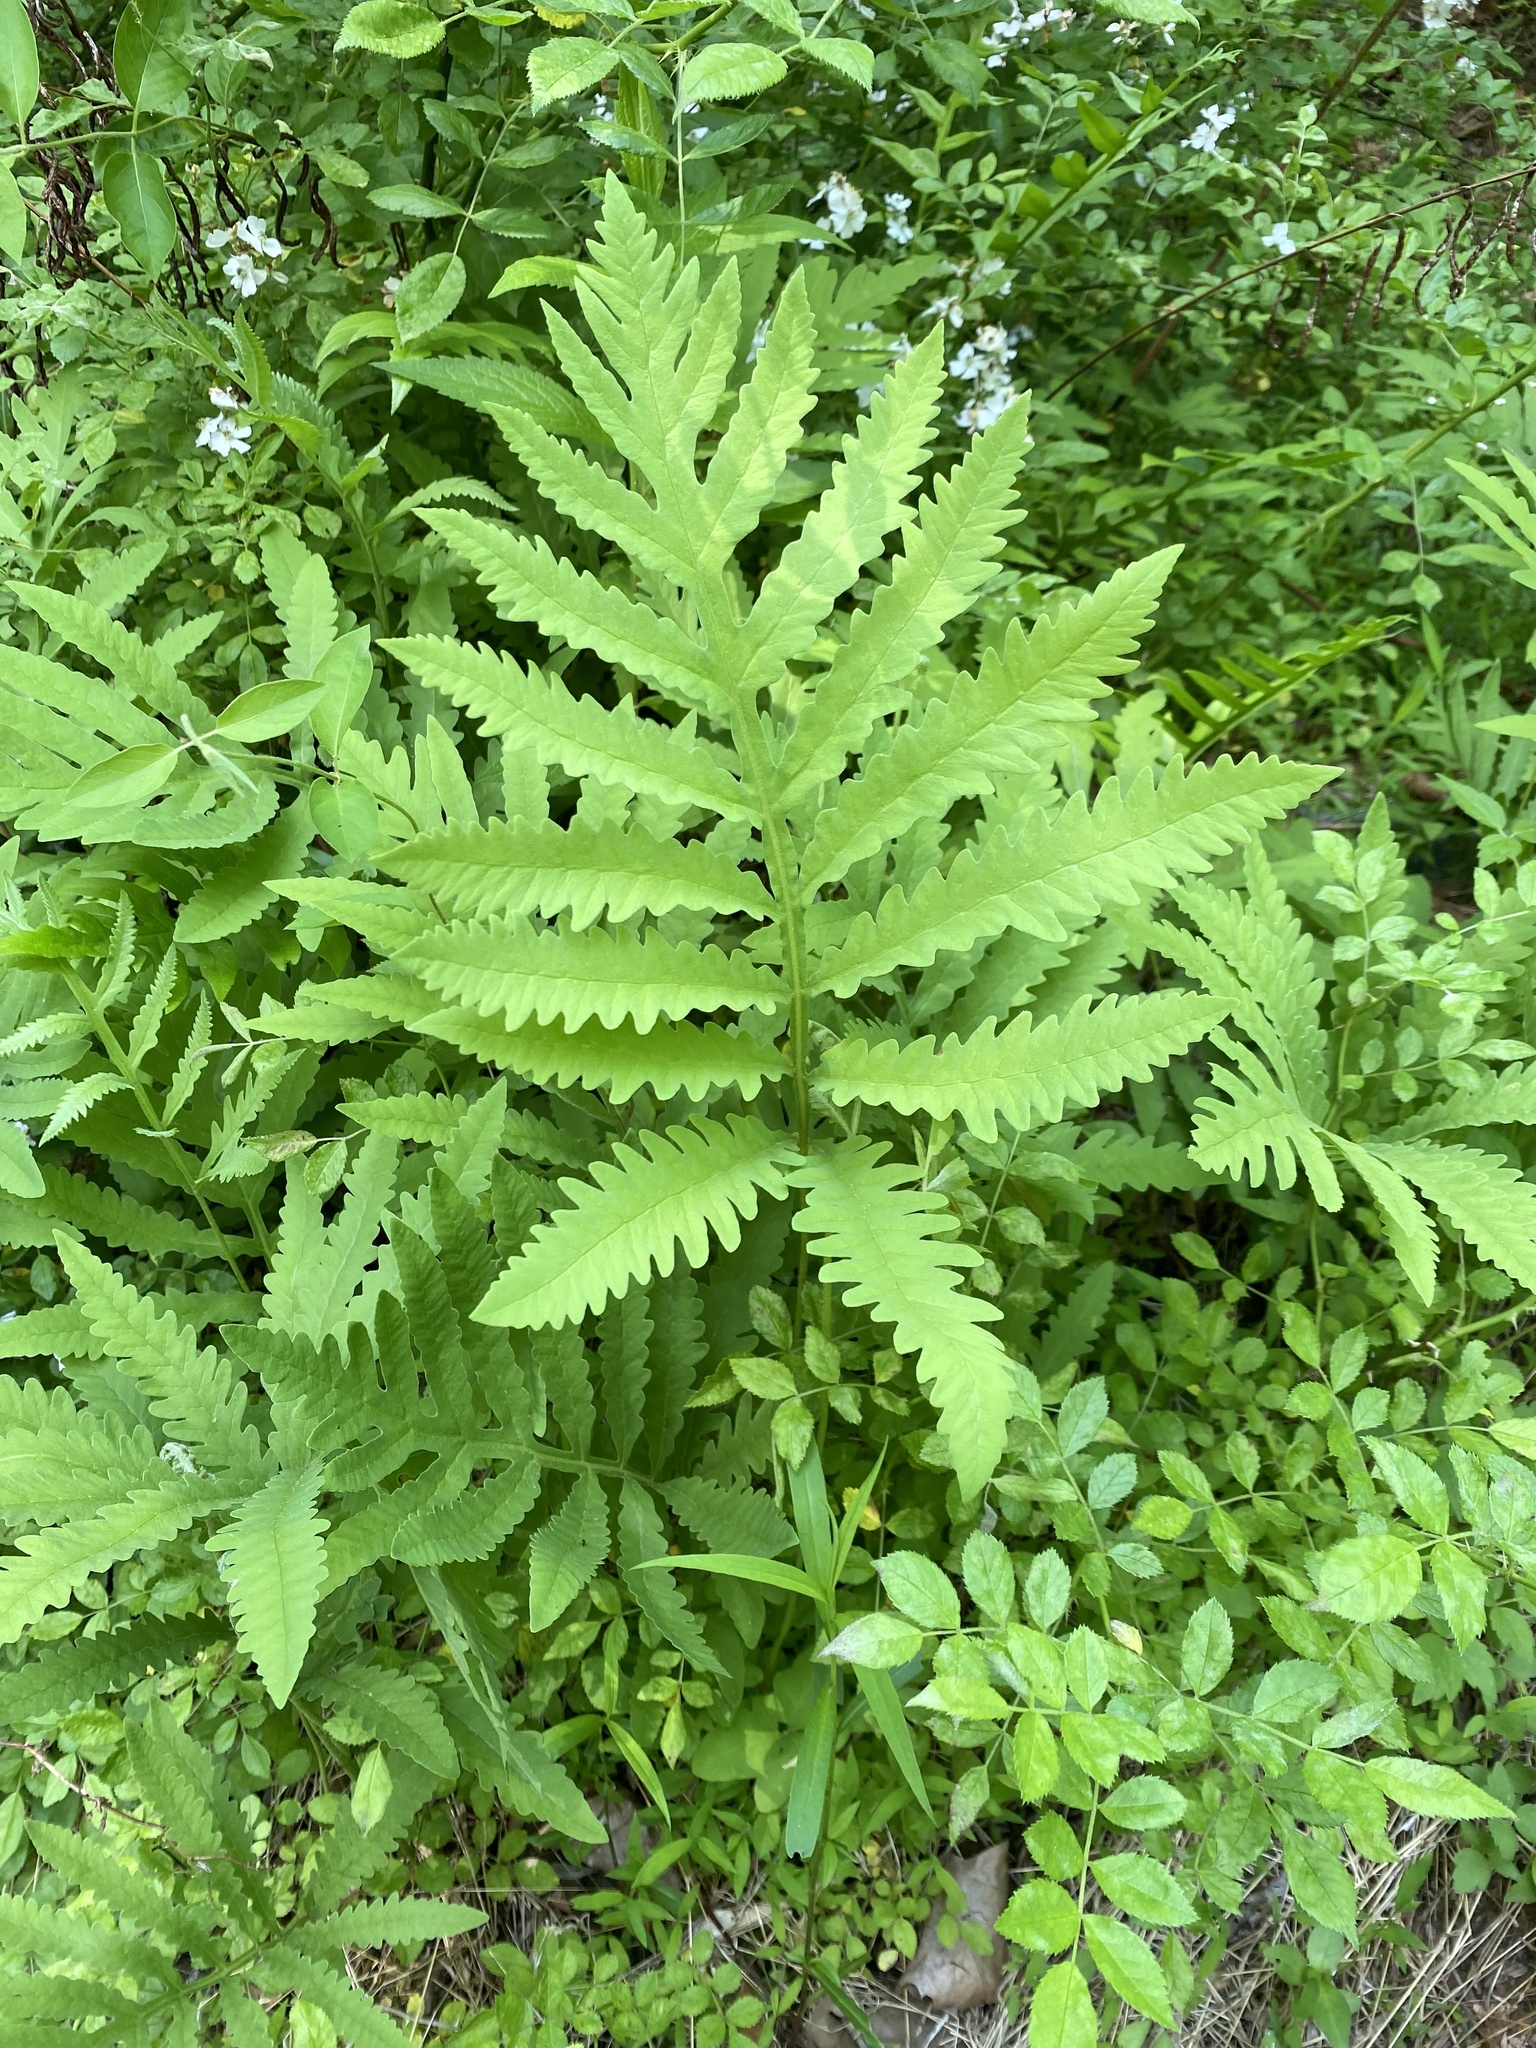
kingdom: Plantae
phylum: Tracheophyta
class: Polypodiopsida
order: Polypodiales
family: Onocleaceae
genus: Onoclea
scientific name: Onoclea sensibilis
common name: Sensitive fern
